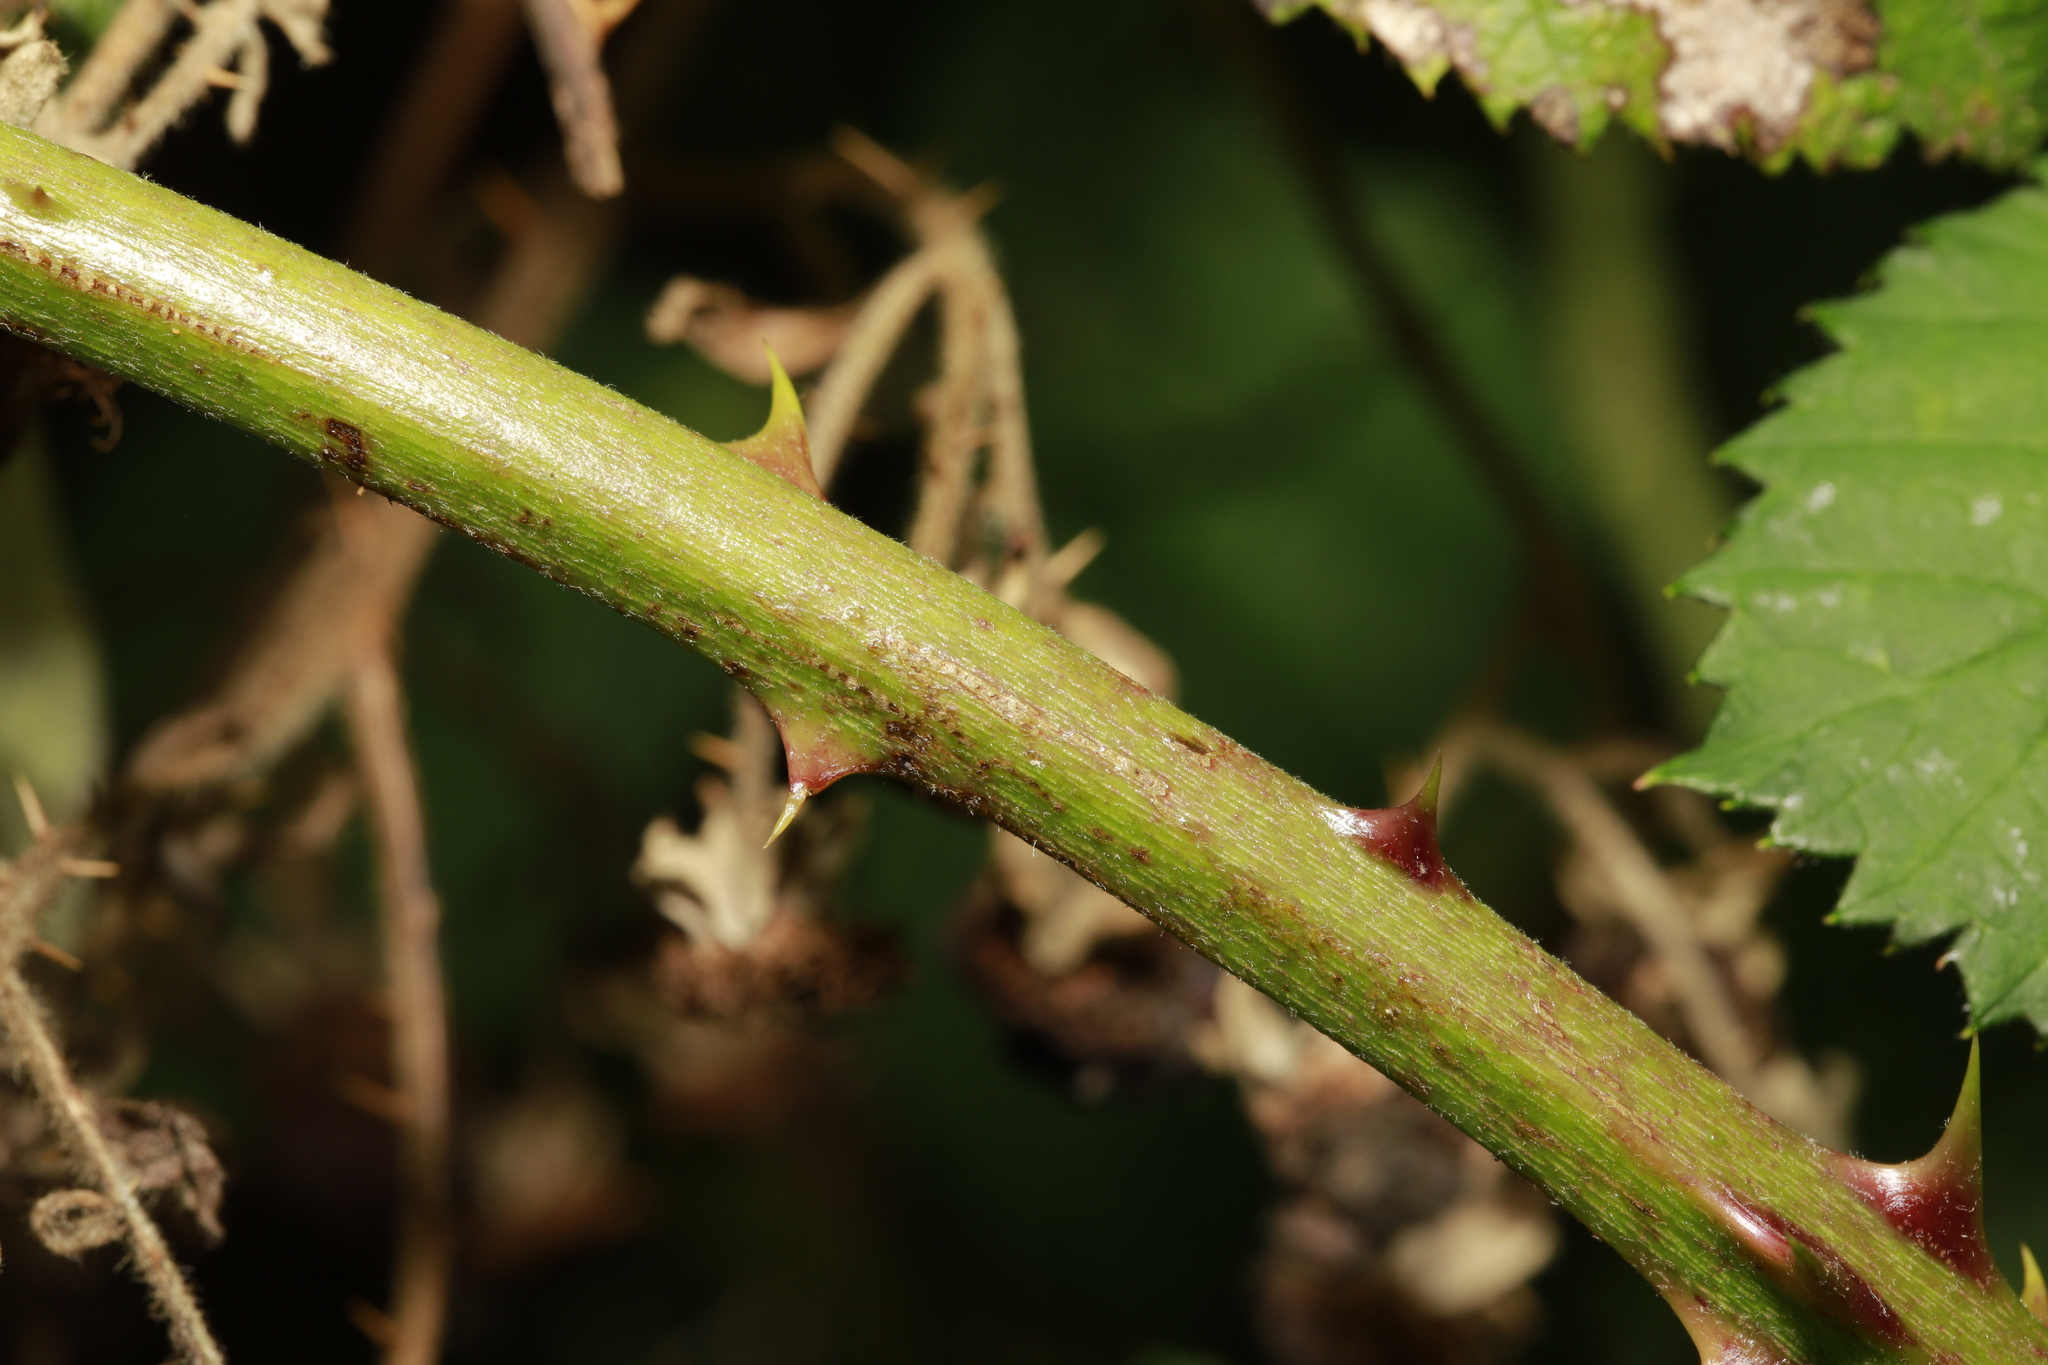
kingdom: Plantae
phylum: Tracheophyta
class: Magnoliopsida
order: Rosales
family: Rosaceae
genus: Rubus
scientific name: Rubus armeniacus
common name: Himalayan blackberry
